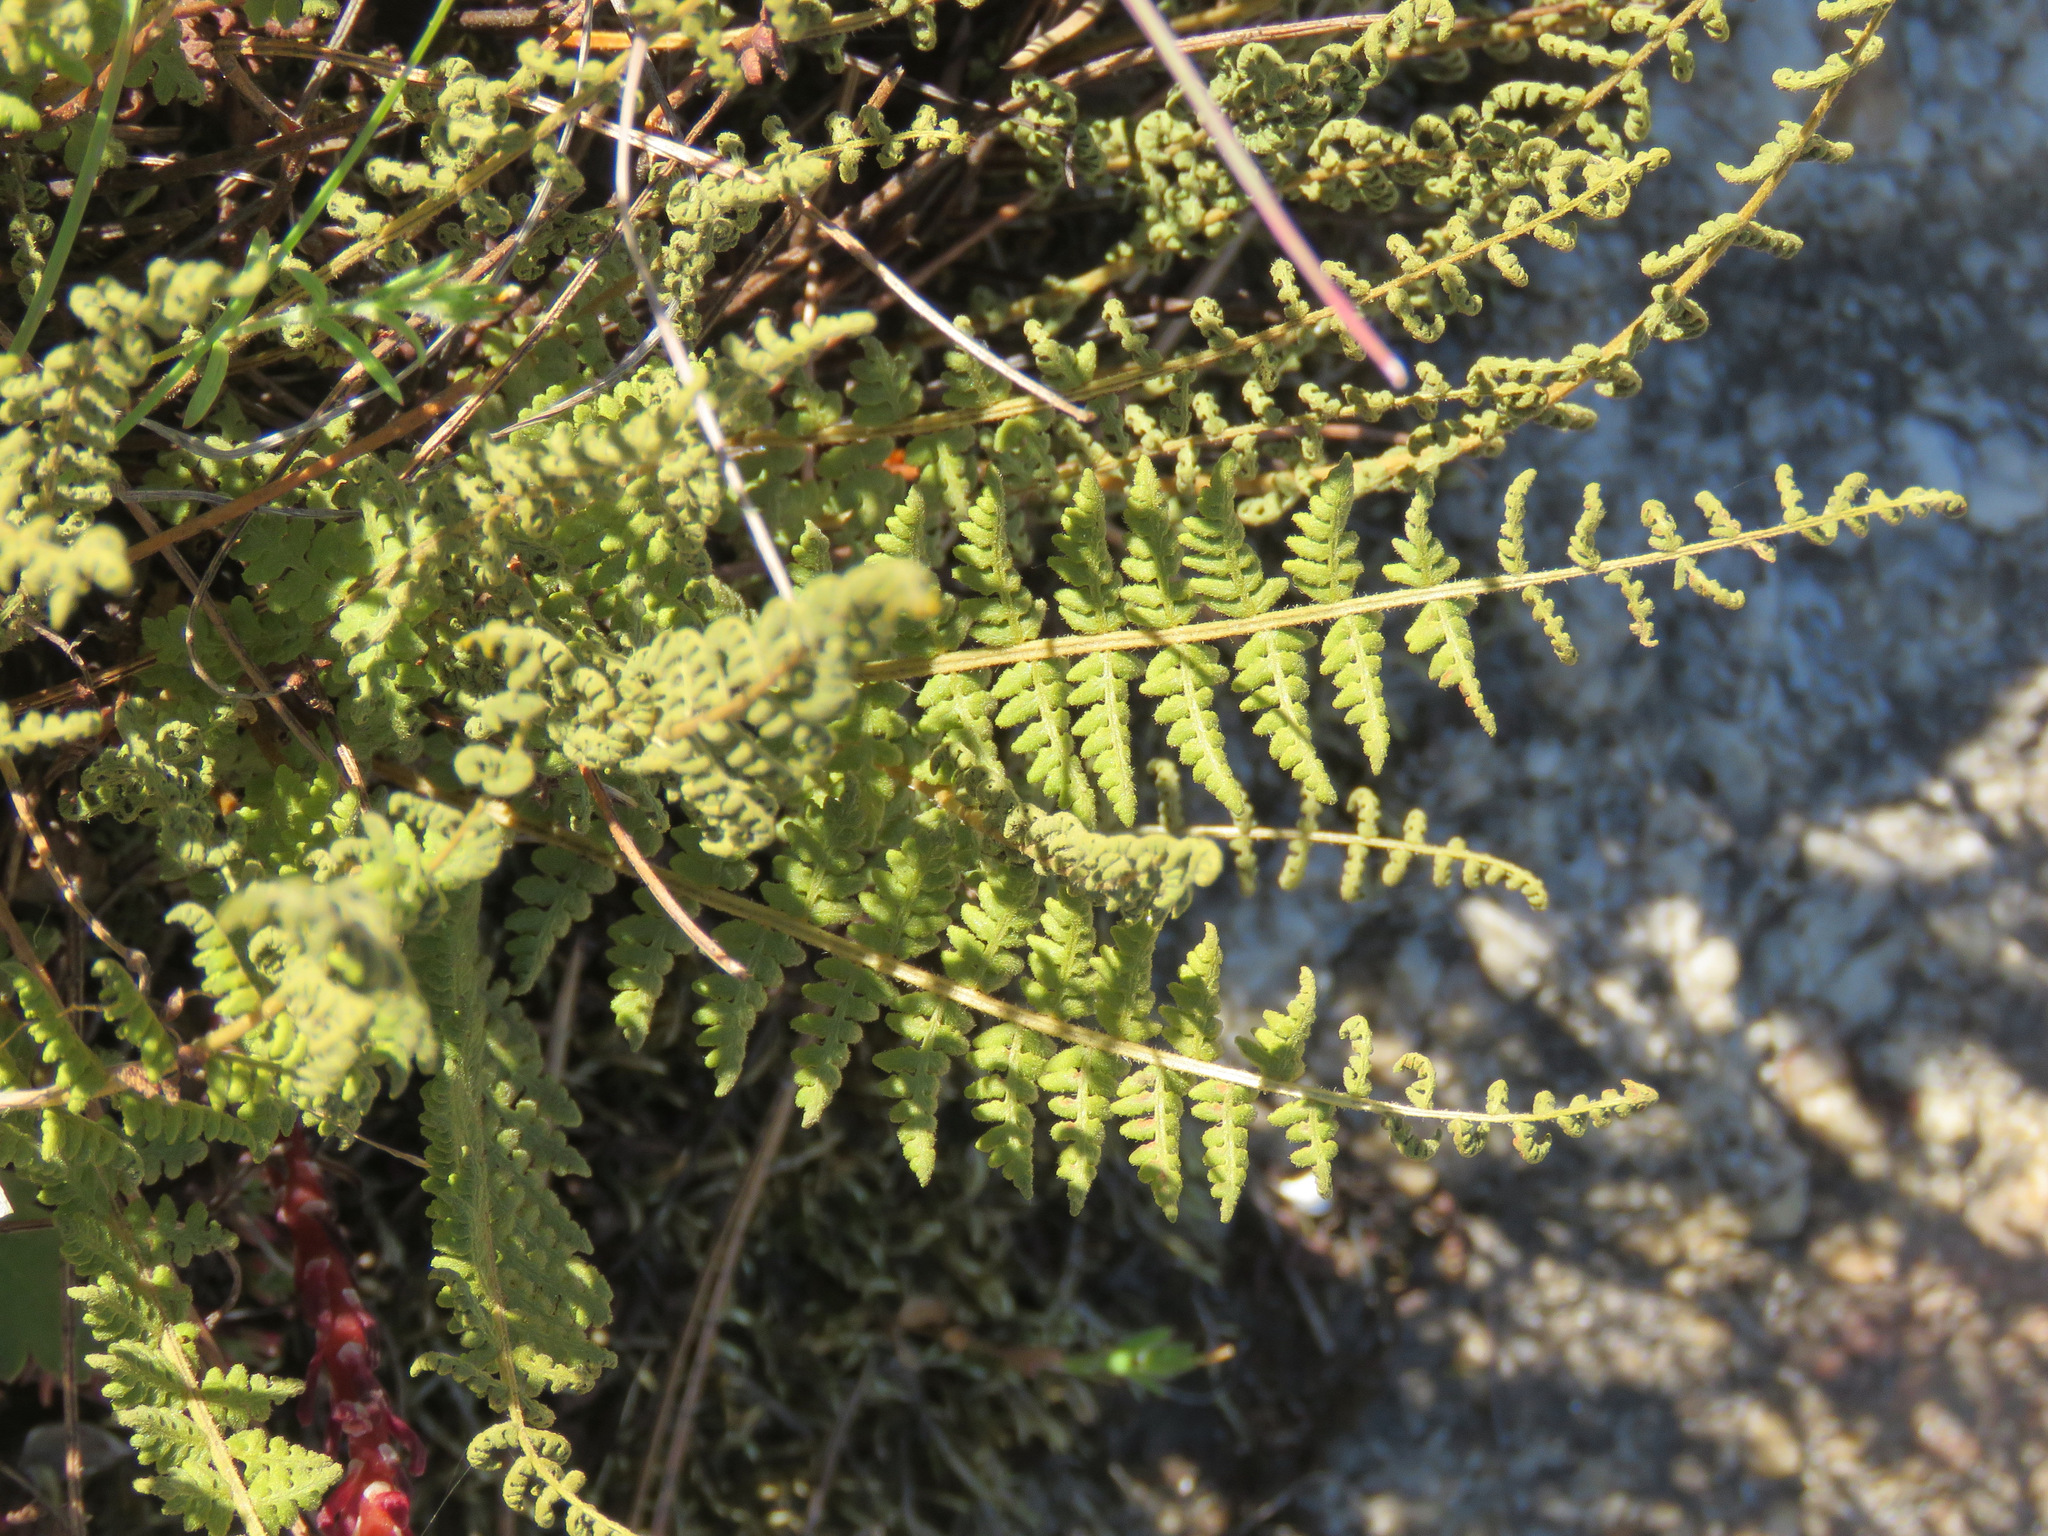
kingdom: Plantae
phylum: Tracheophyta
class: Polypodiopsida
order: Polypodiales
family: Woodsiaceae
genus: Physematium
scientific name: Physematium scopulinum
